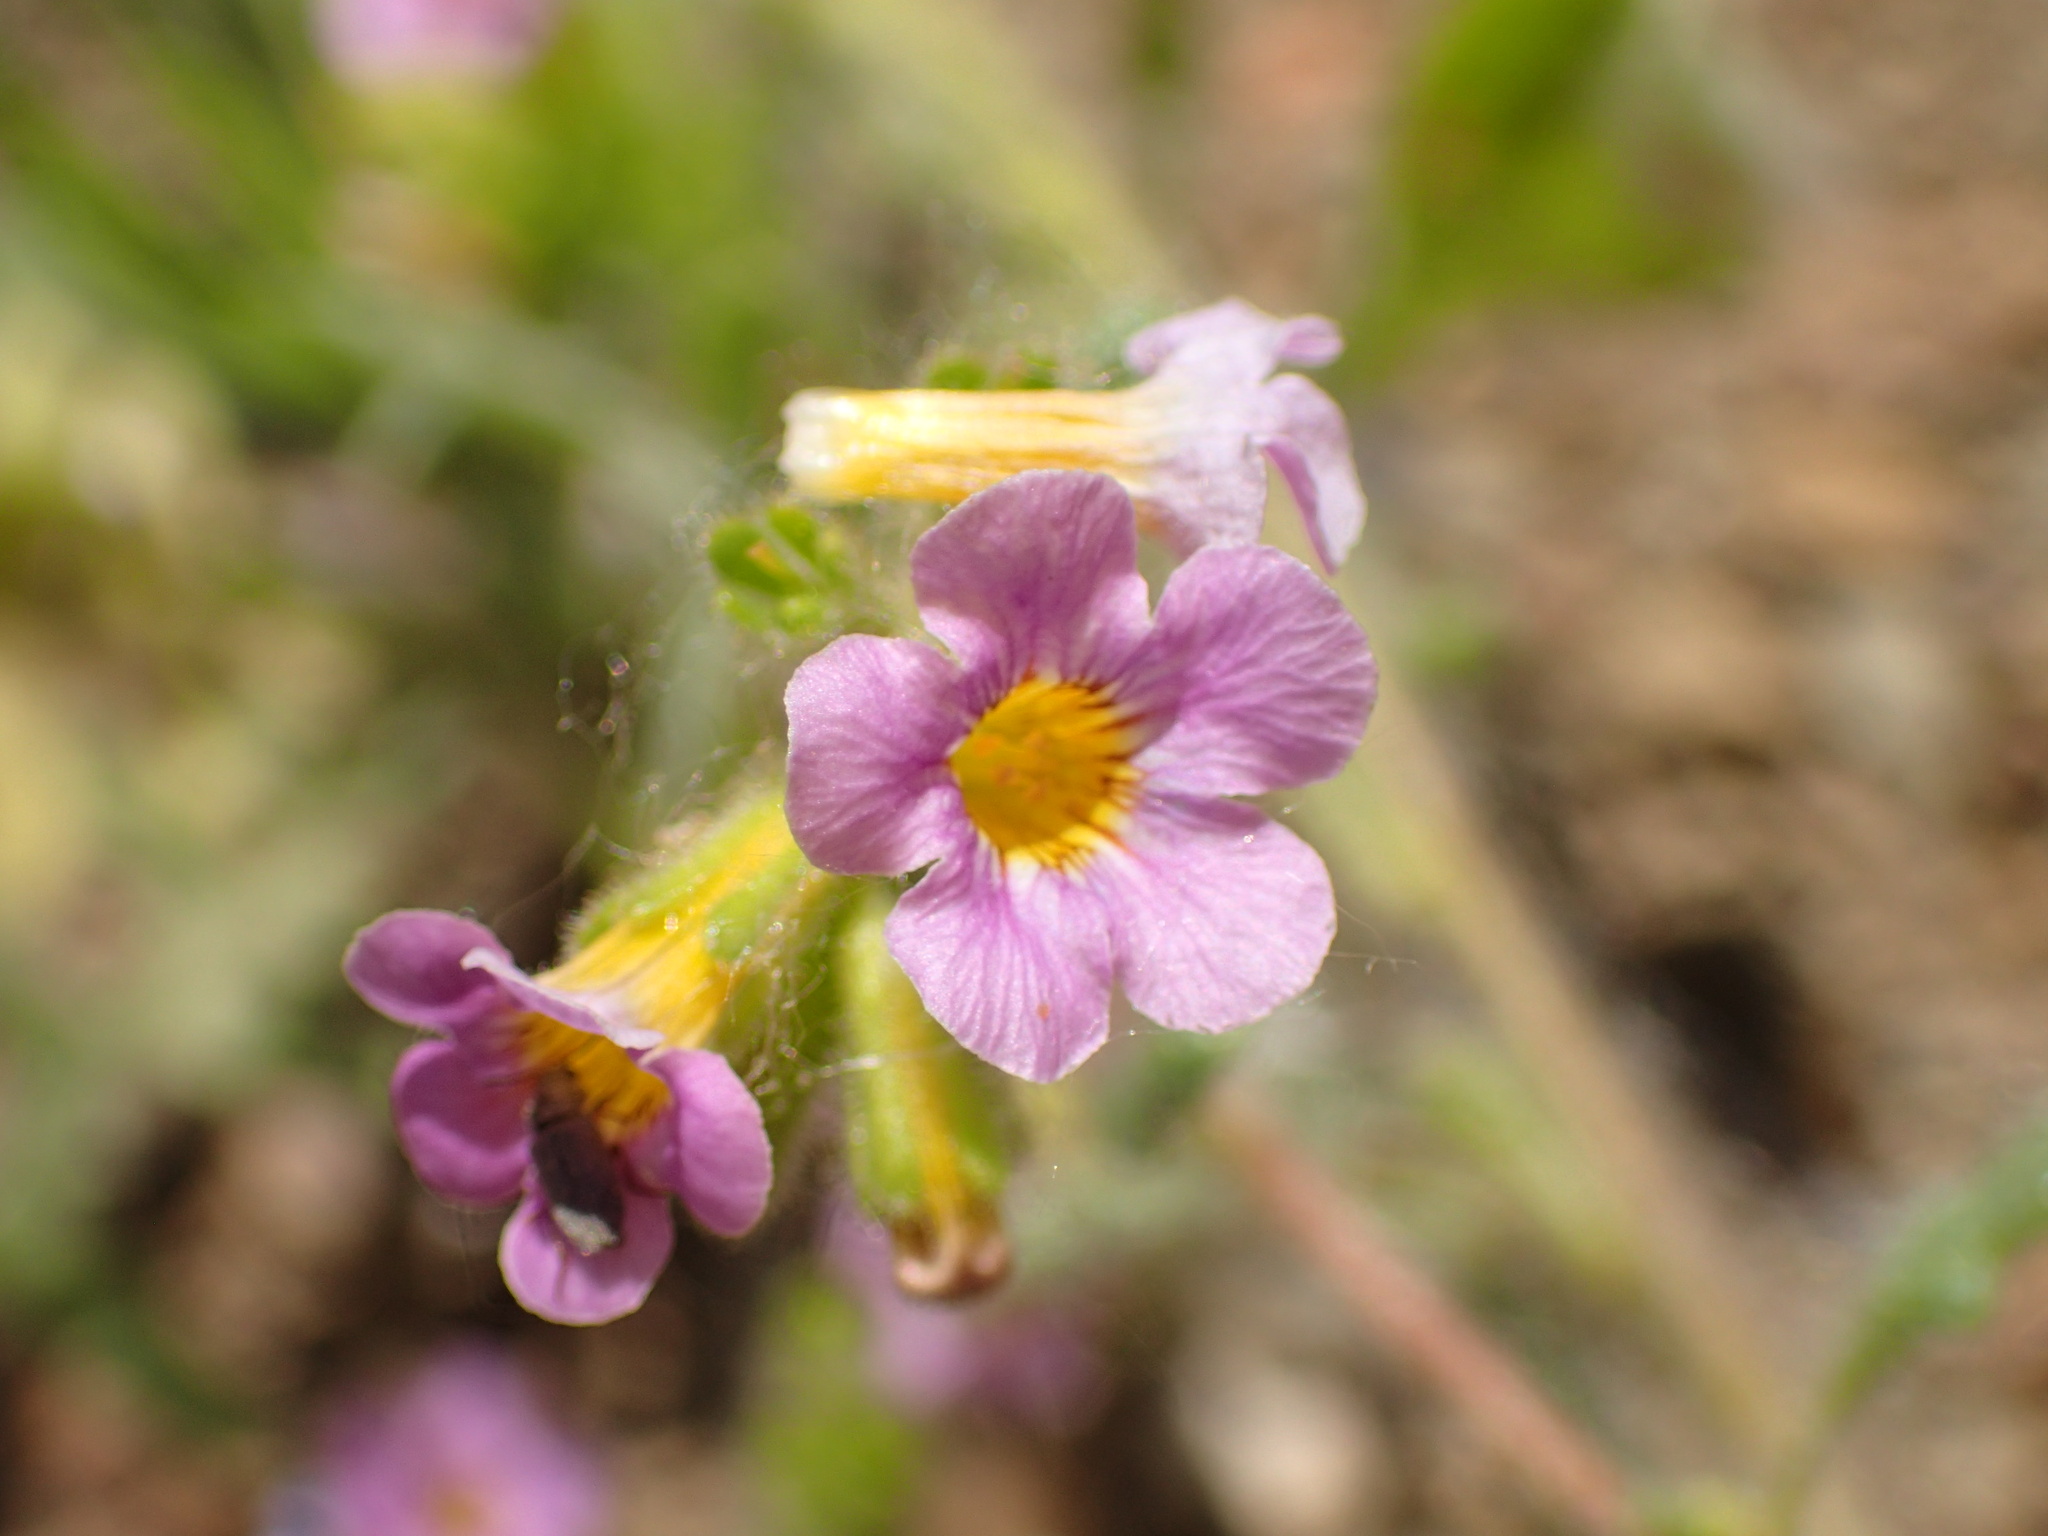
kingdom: Plantae
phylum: Tracheophyta
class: Magnoliopsida
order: Boraginales
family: Hydrophyllaceae
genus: Phacelia
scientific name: Phacelia brachyloba
